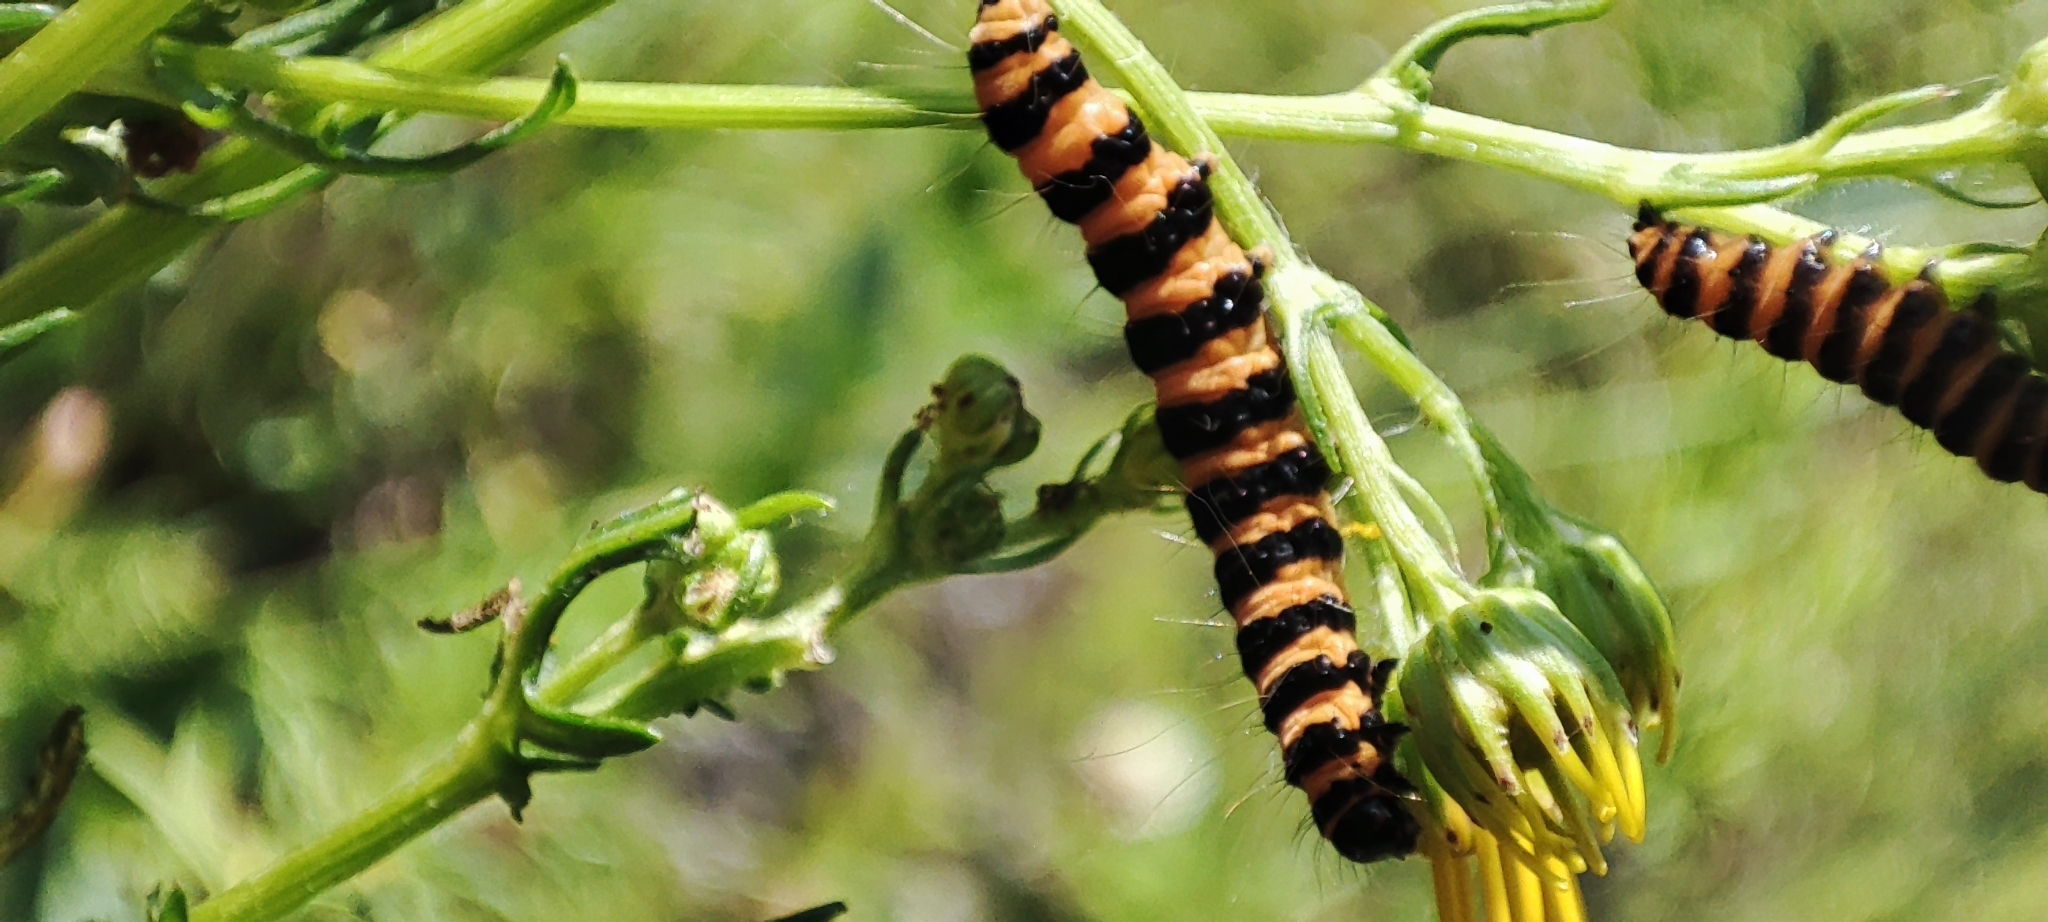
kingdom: Animalia
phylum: Arthropoda
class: Insecta
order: Lepidoptera
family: Erebidae
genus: Tyria
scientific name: Tyria jacobaeae
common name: Cinnabar
